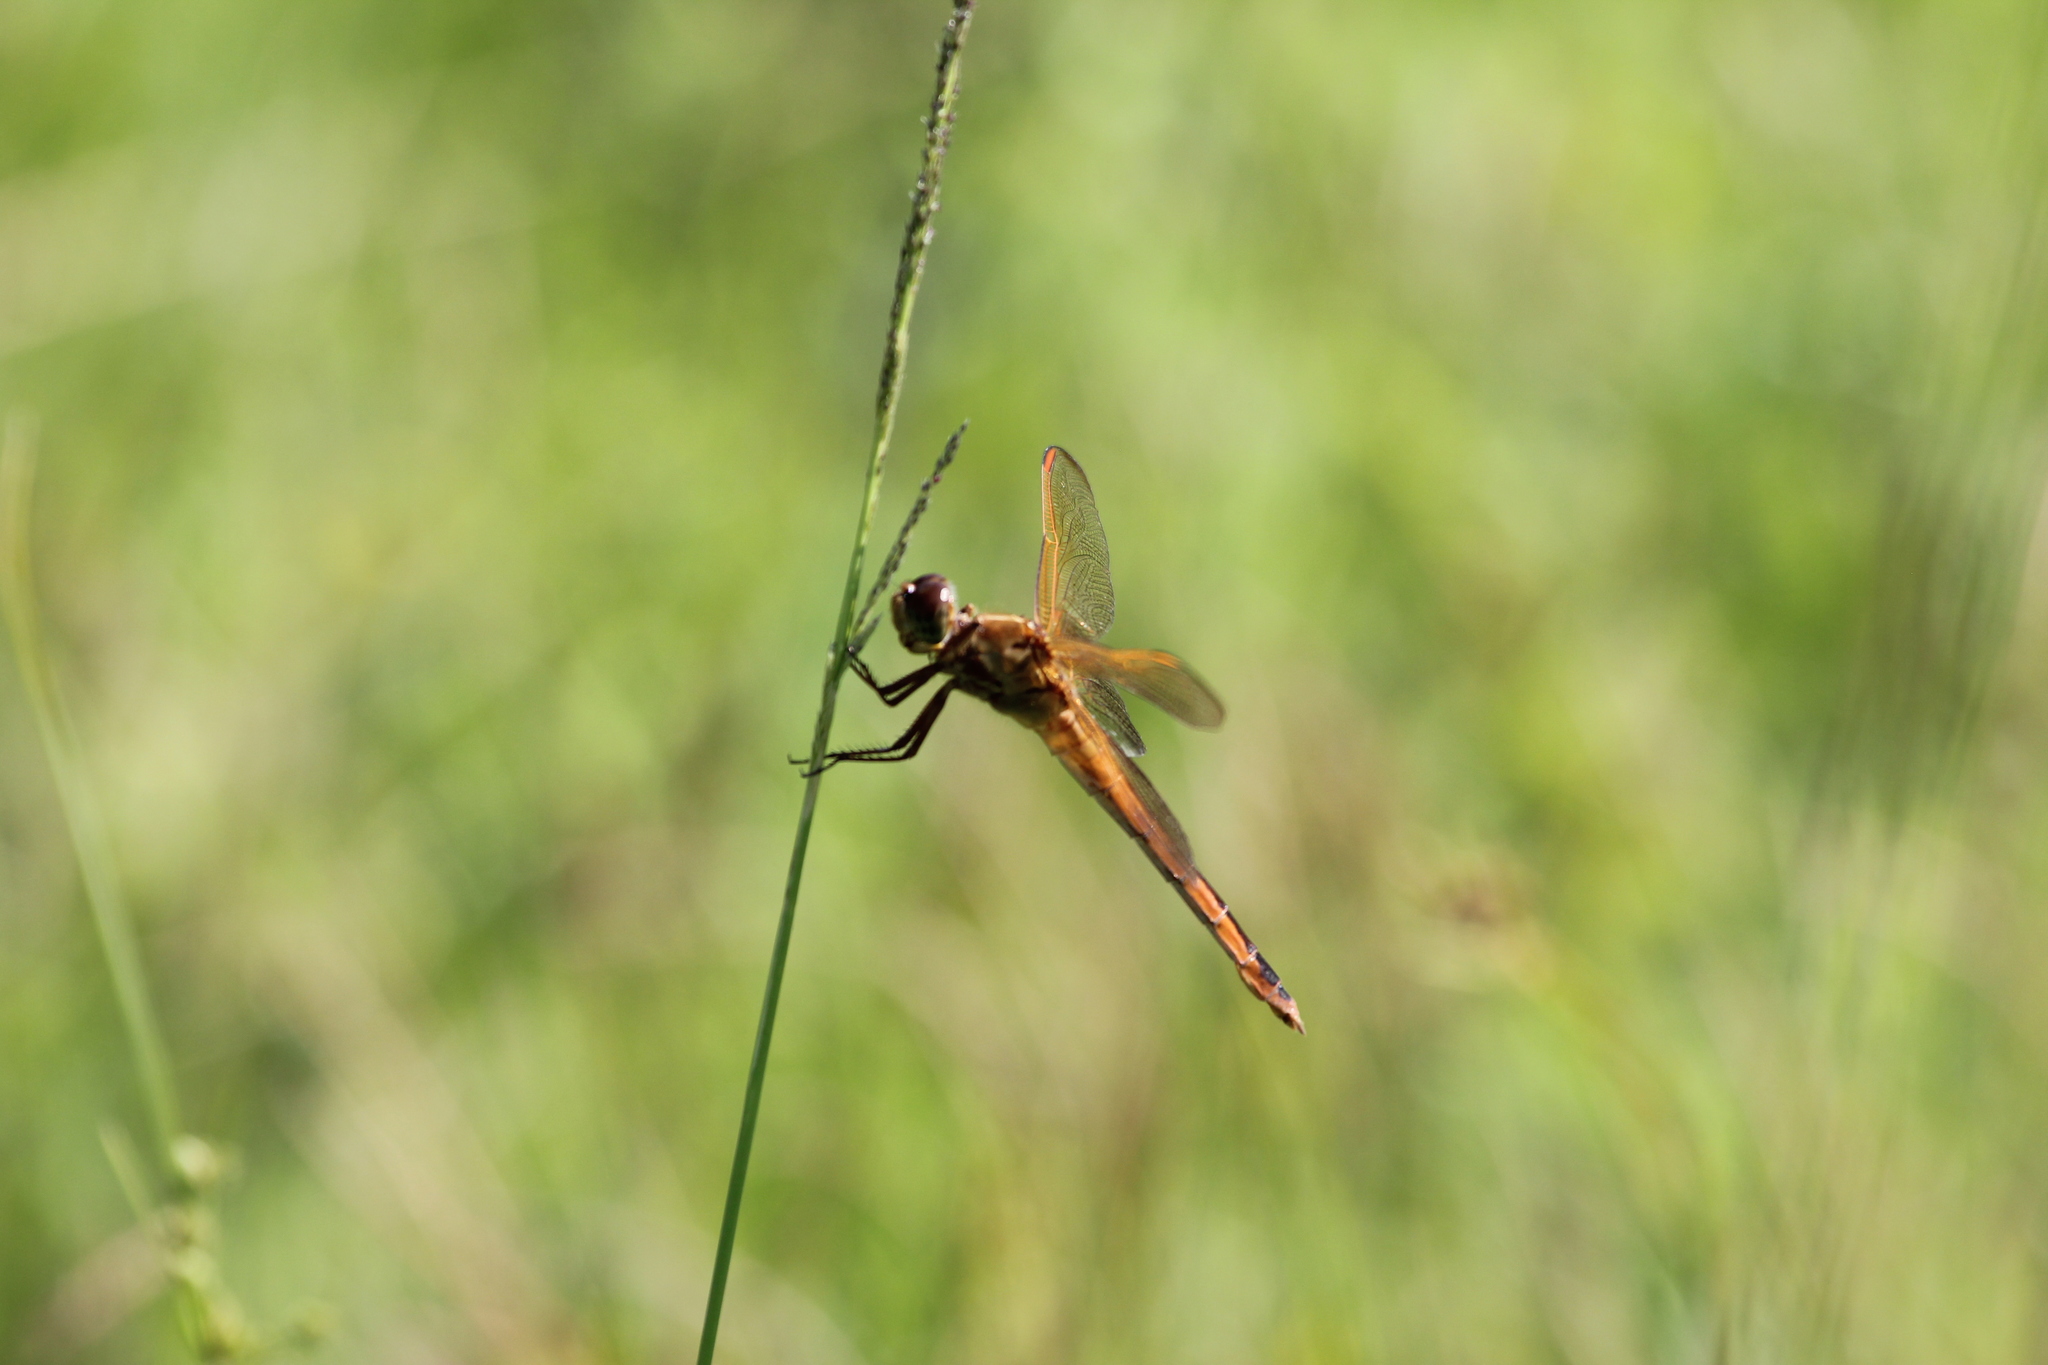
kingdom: Animalia
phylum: Arthropoda
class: Insecta
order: Odonata
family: Libellulidae
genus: Libellula
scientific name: Libellula needhami
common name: Needham's skimmer
